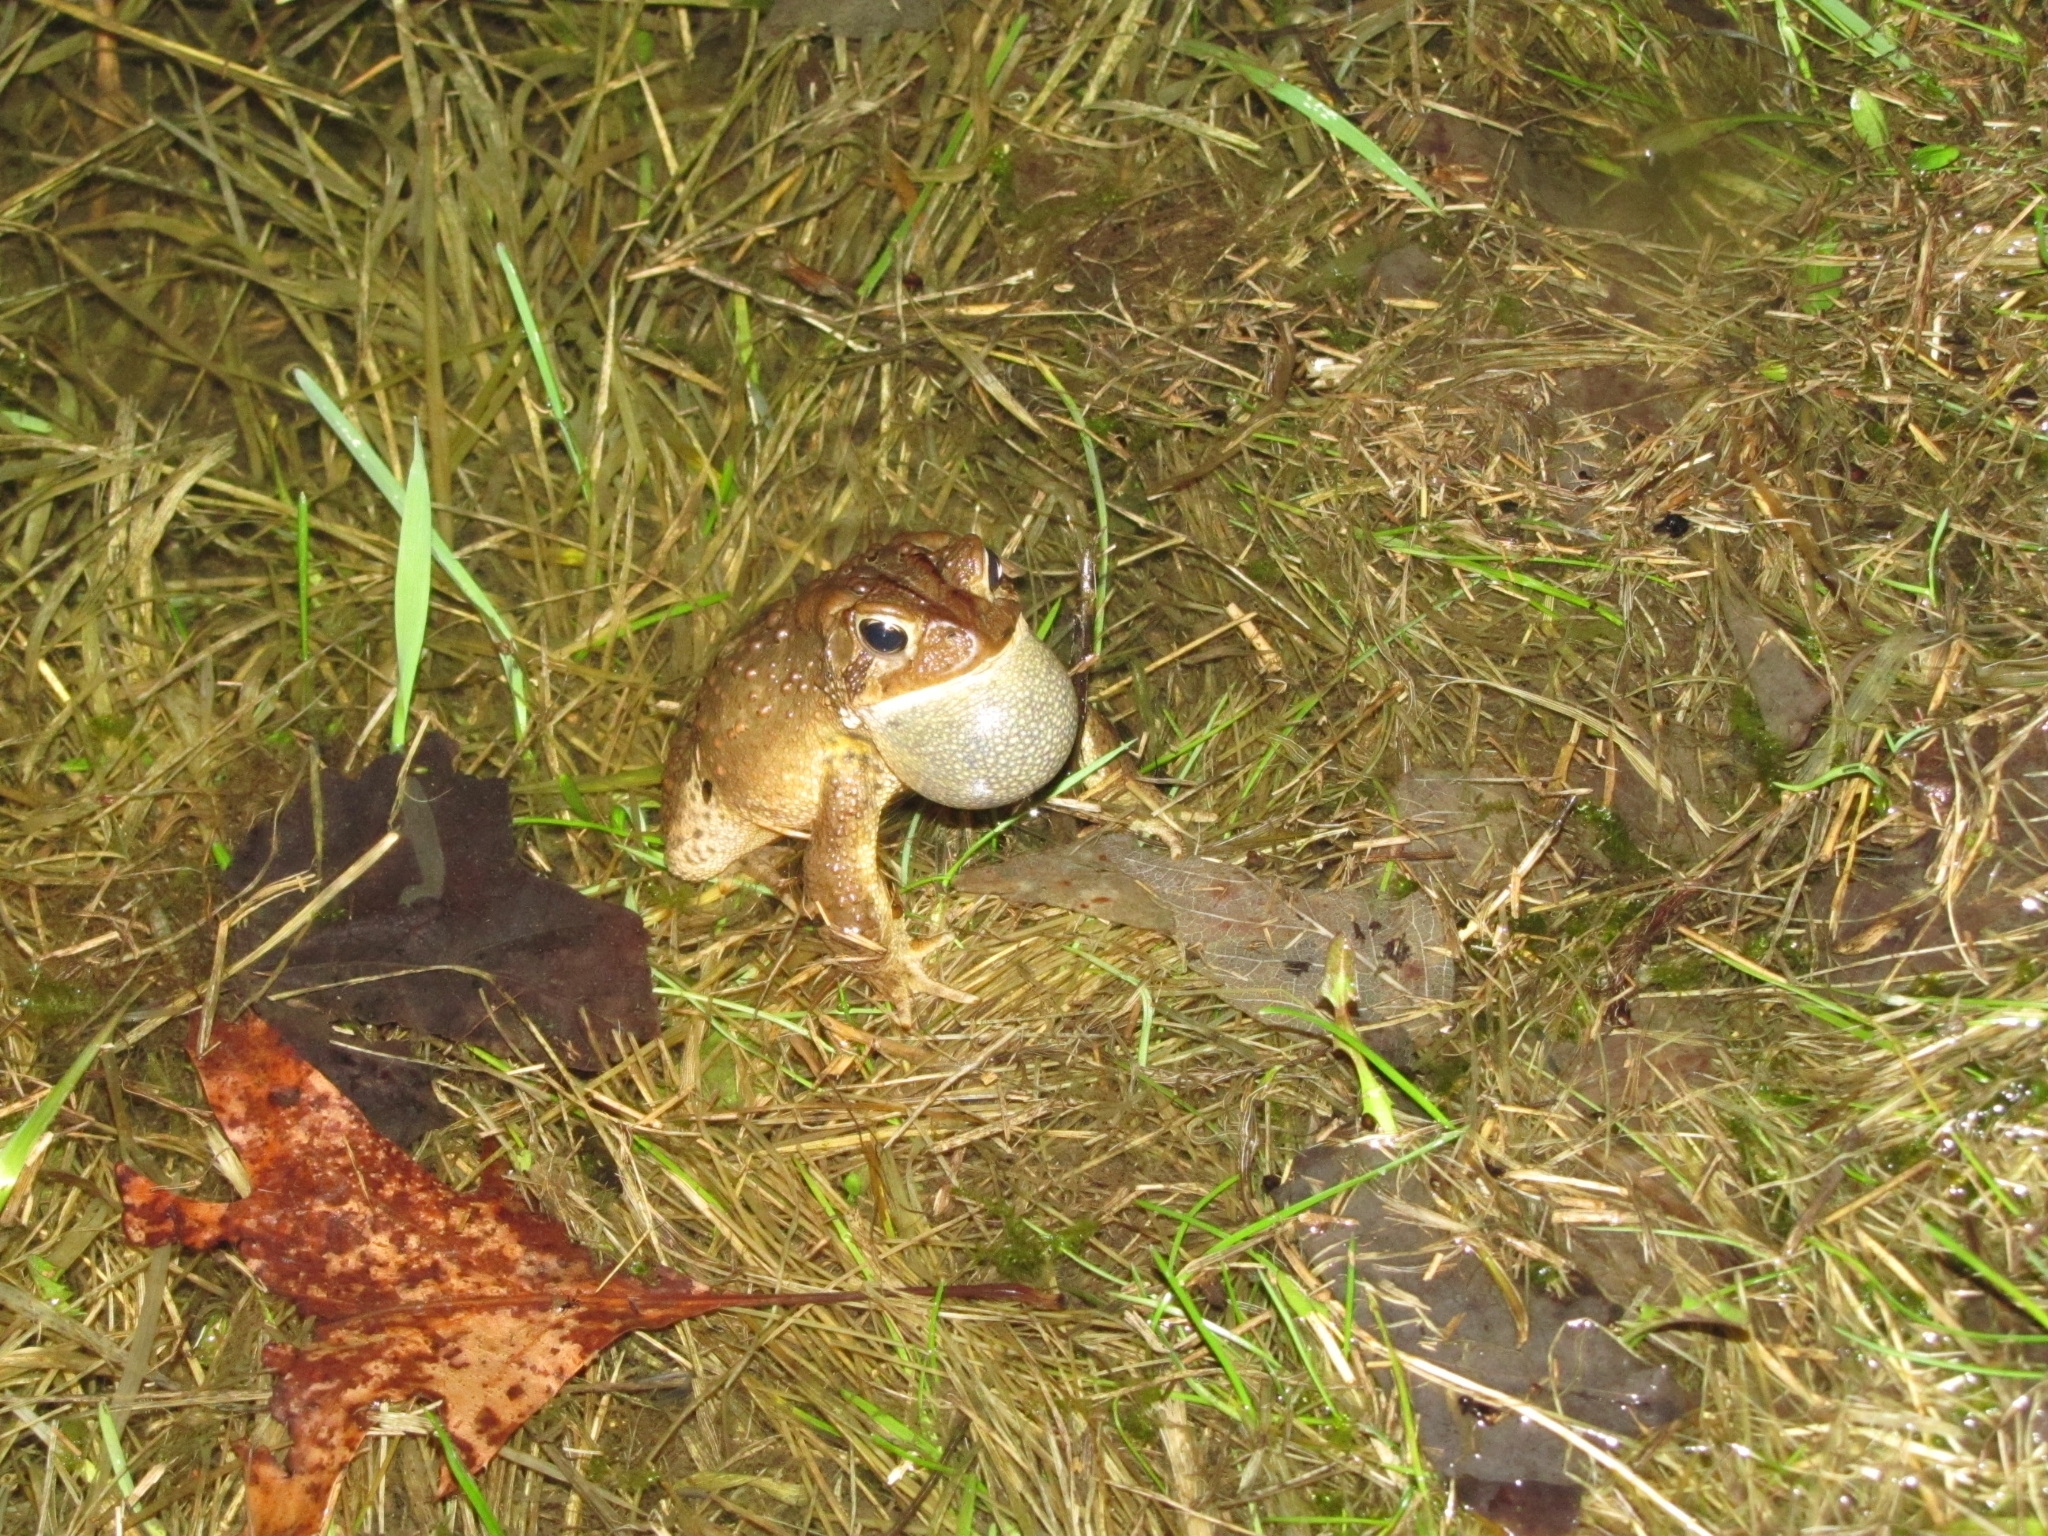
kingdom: Animalia
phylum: Chordata
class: Amphibia
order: Anura
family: Bufonidae
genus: Anaxyrus
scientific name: Anaxyrus americanus
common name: American toad
